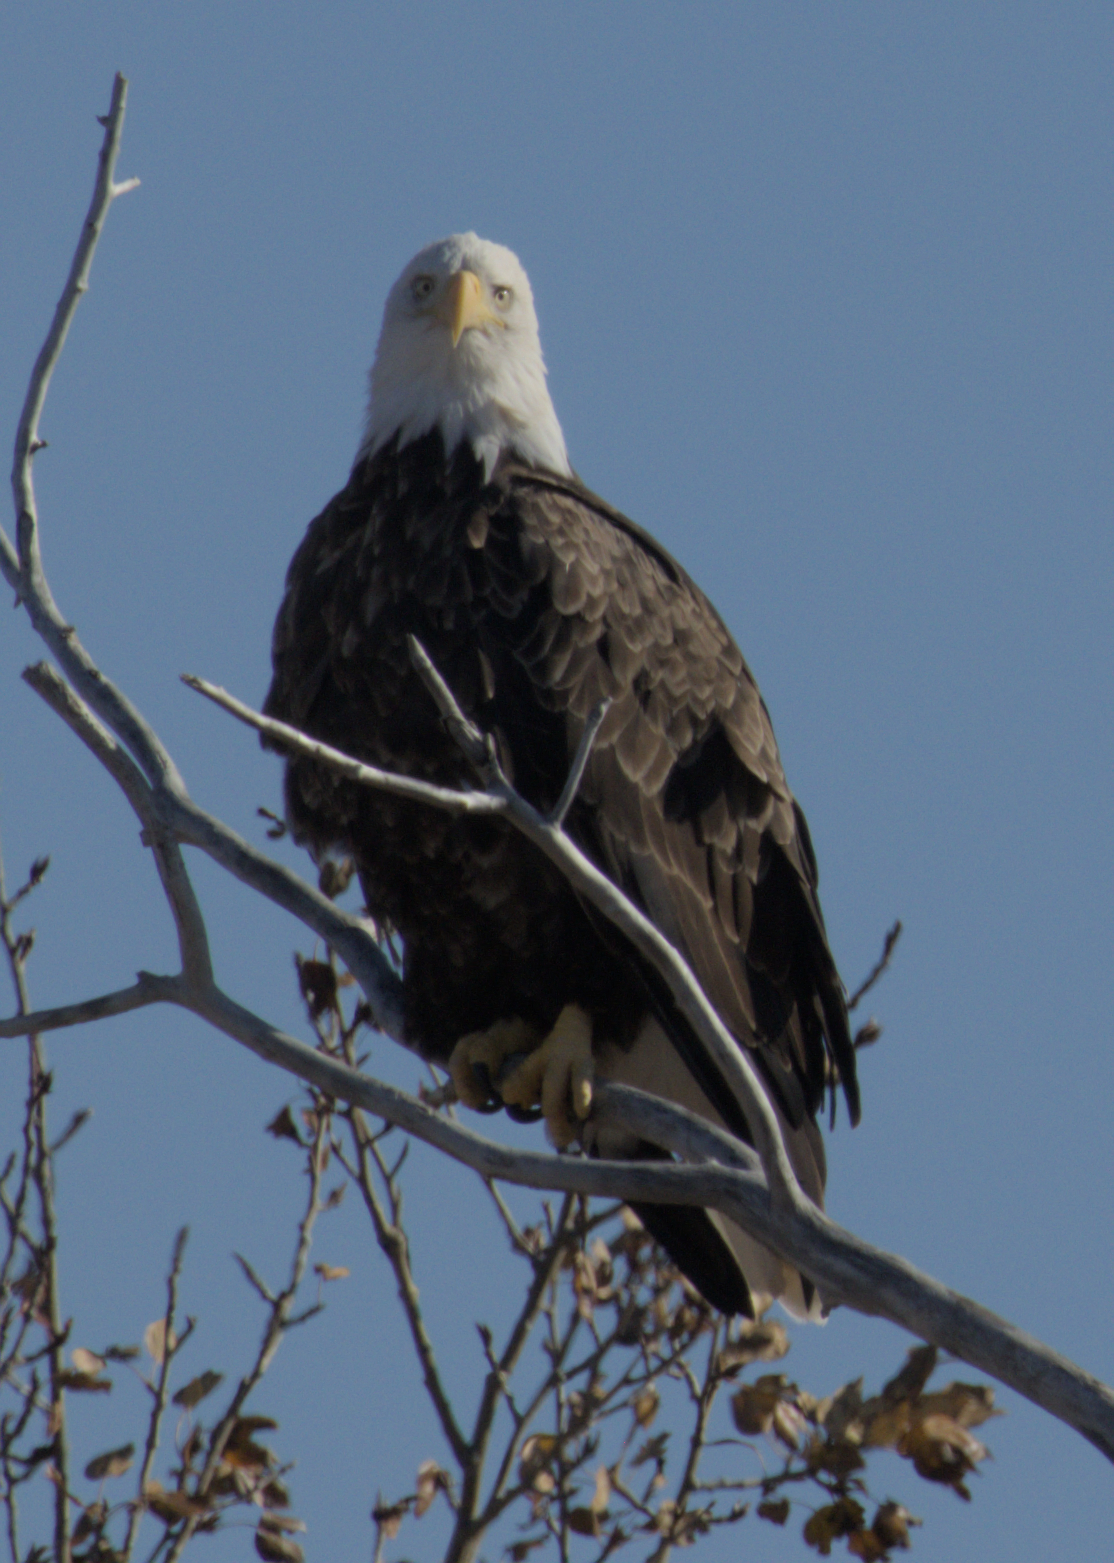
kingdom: Animalia
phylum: Chordata
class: Aves
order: Accipitriformes
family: Accipitridae
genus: Haliaeetus
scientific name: Haliaeetus leucocephalus
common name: Bald eagle
